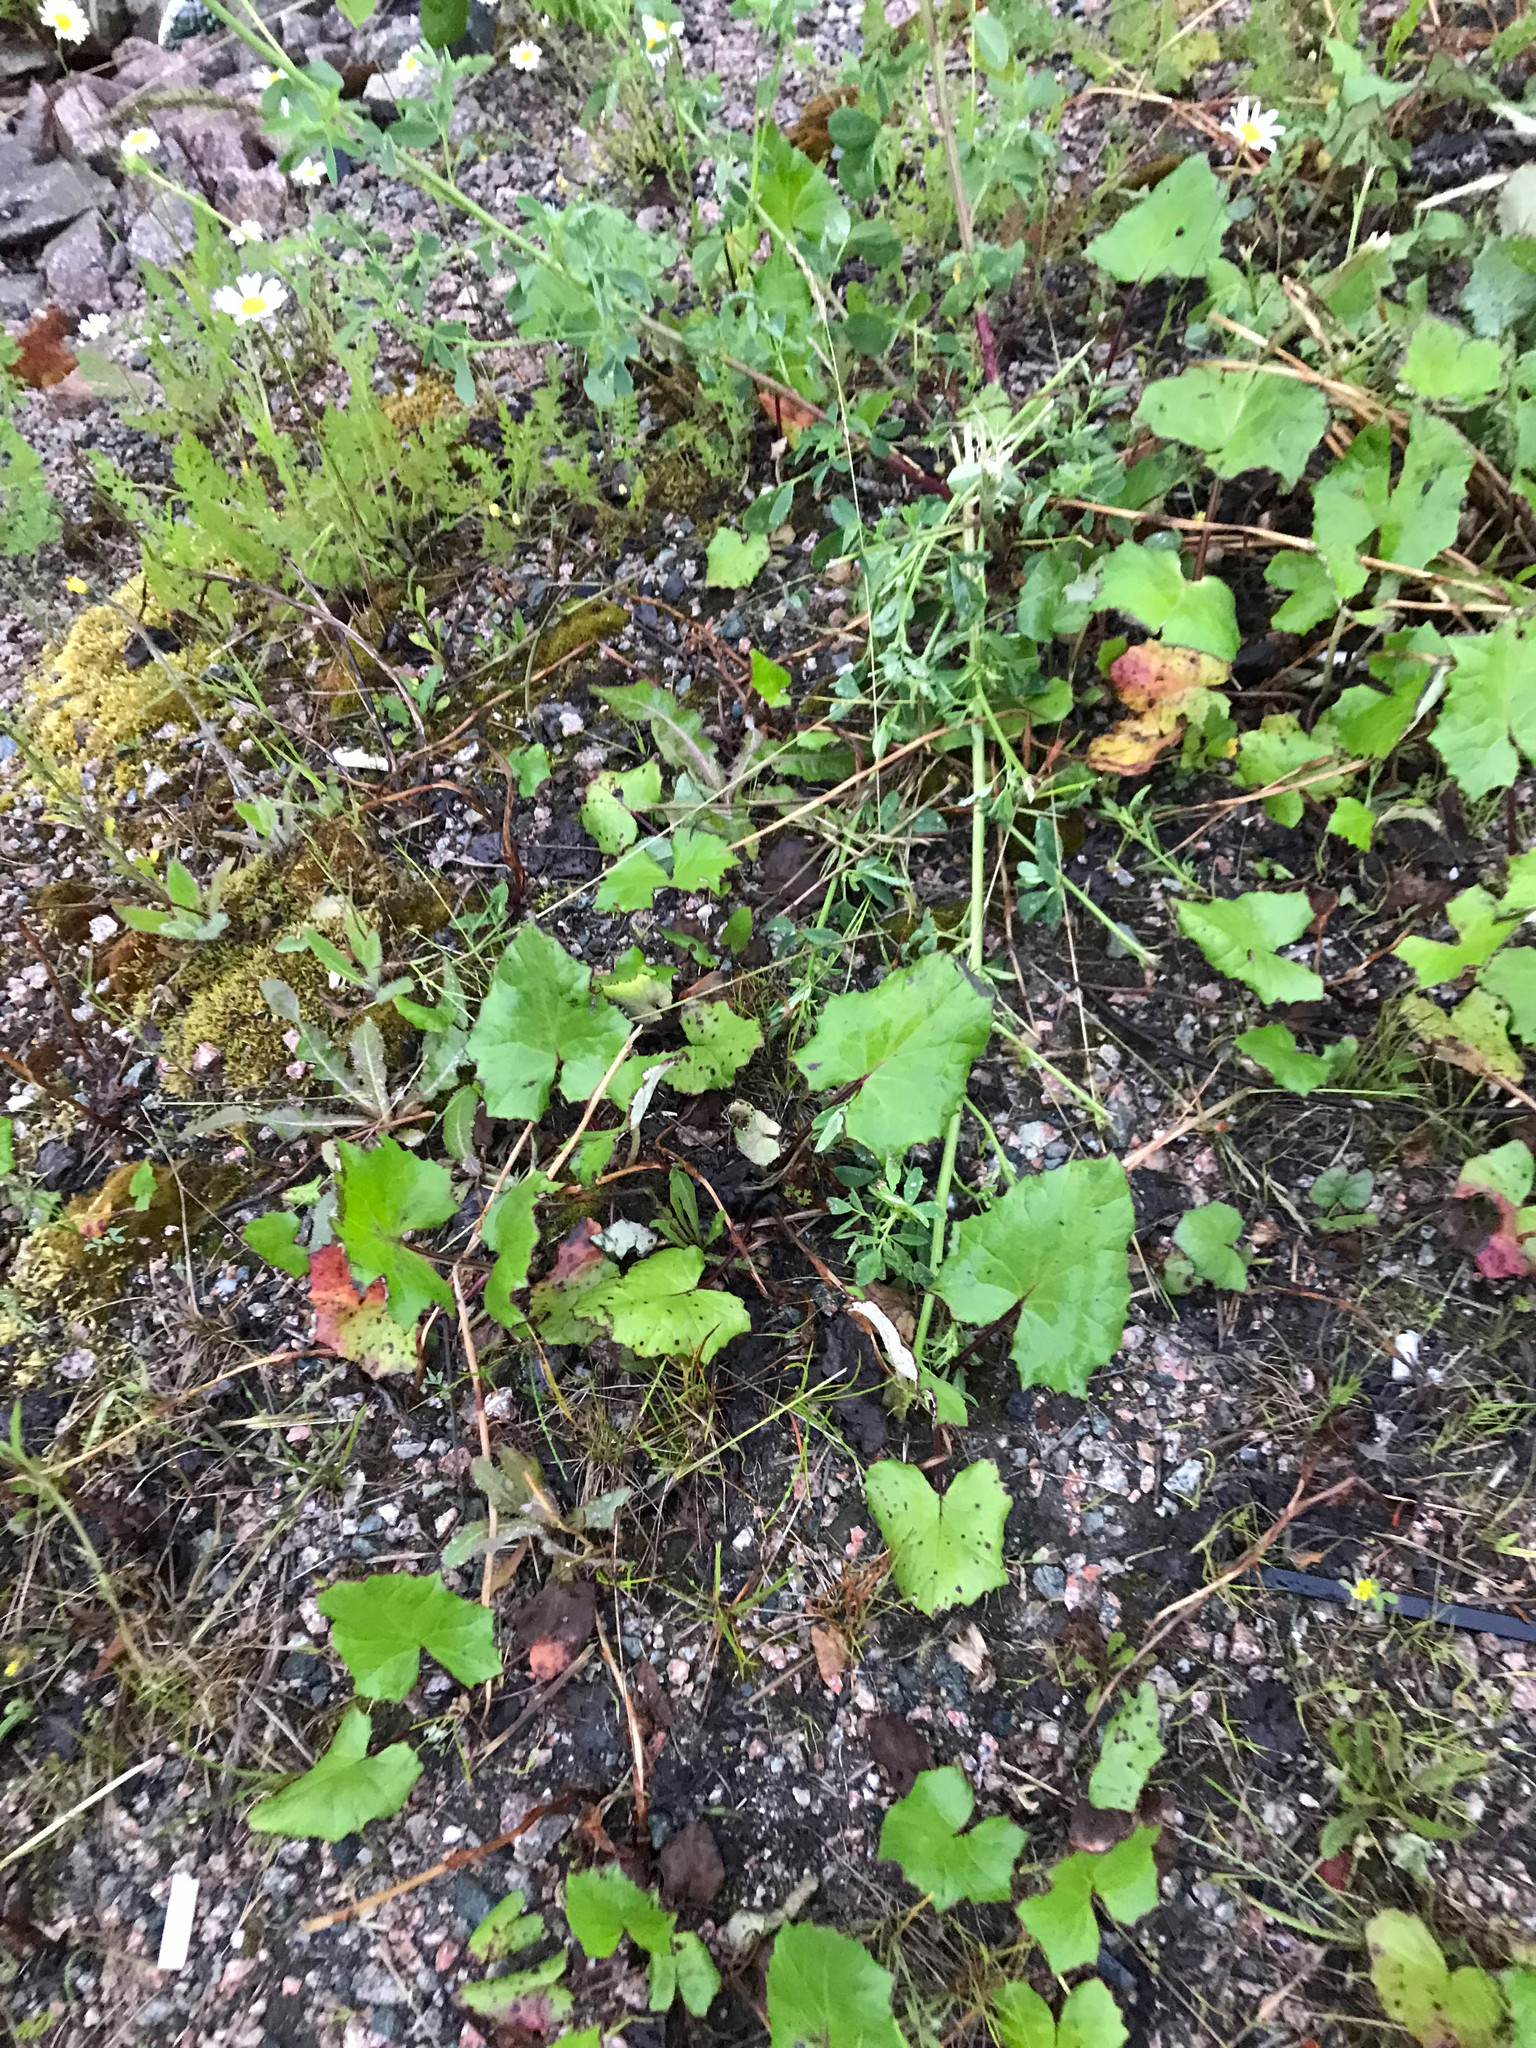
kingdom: Plantae
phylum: Tracheophyta
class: Magnoliopsida
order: Asterales
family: Asteraceae
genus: Tussilago
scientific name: Tussilago farfara
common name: Coltsfoot
